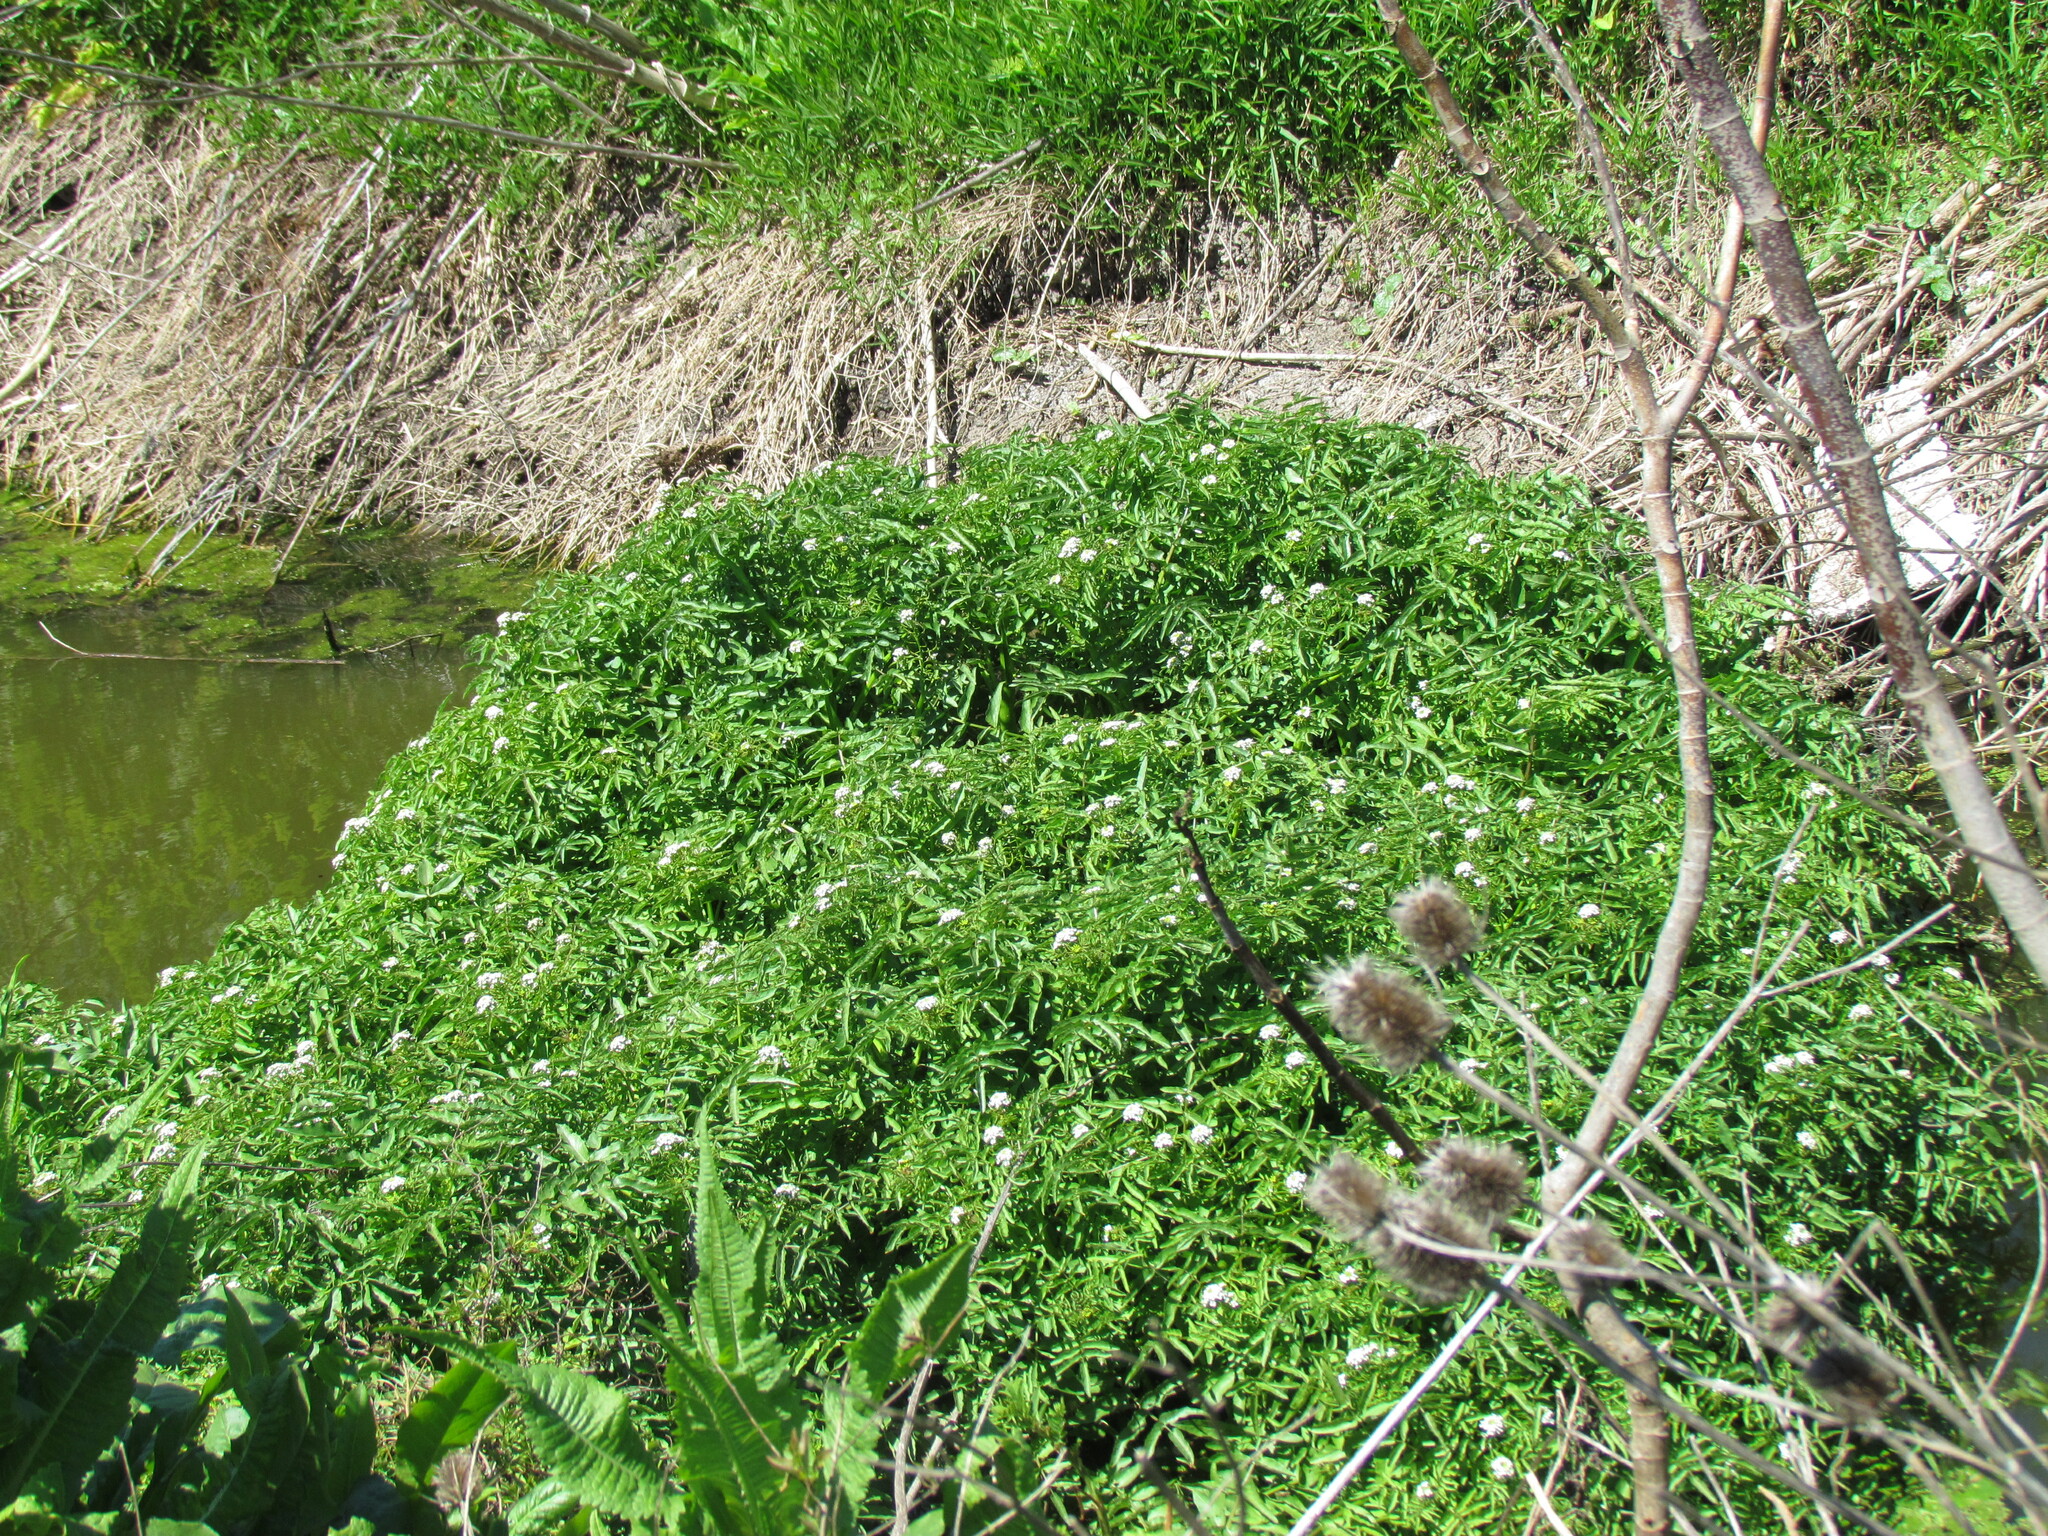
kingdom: Plantae
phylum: Tracheophyta
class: Magnoliopsida
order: Dipsacales
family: Viburnaceae
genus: Sambucus
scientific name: Sambucus australis
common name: Southern elder
